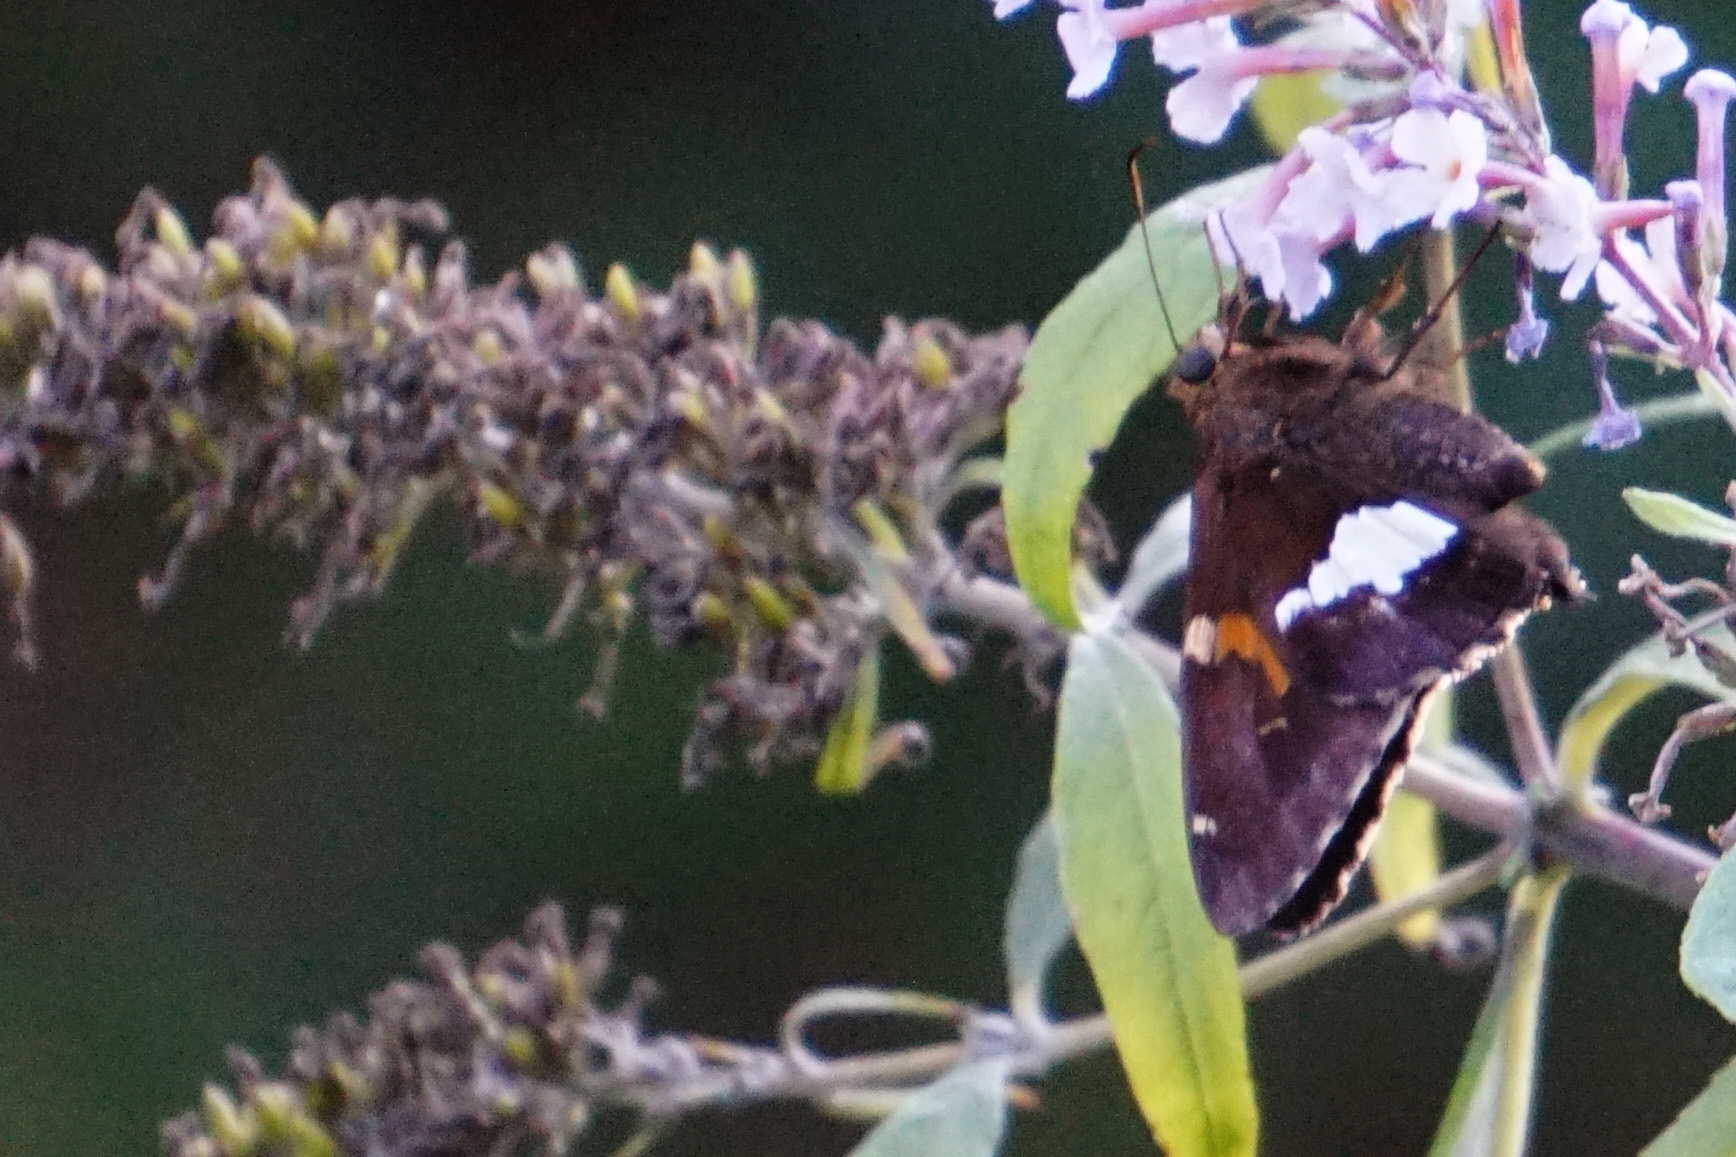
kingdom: Animalia
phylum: Arthropoda
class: Insecta
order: Lepidoptera
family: Hesperiidae
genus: Epargyreus
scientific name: Epargyreus clarus
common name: Silver-spotted skipper
